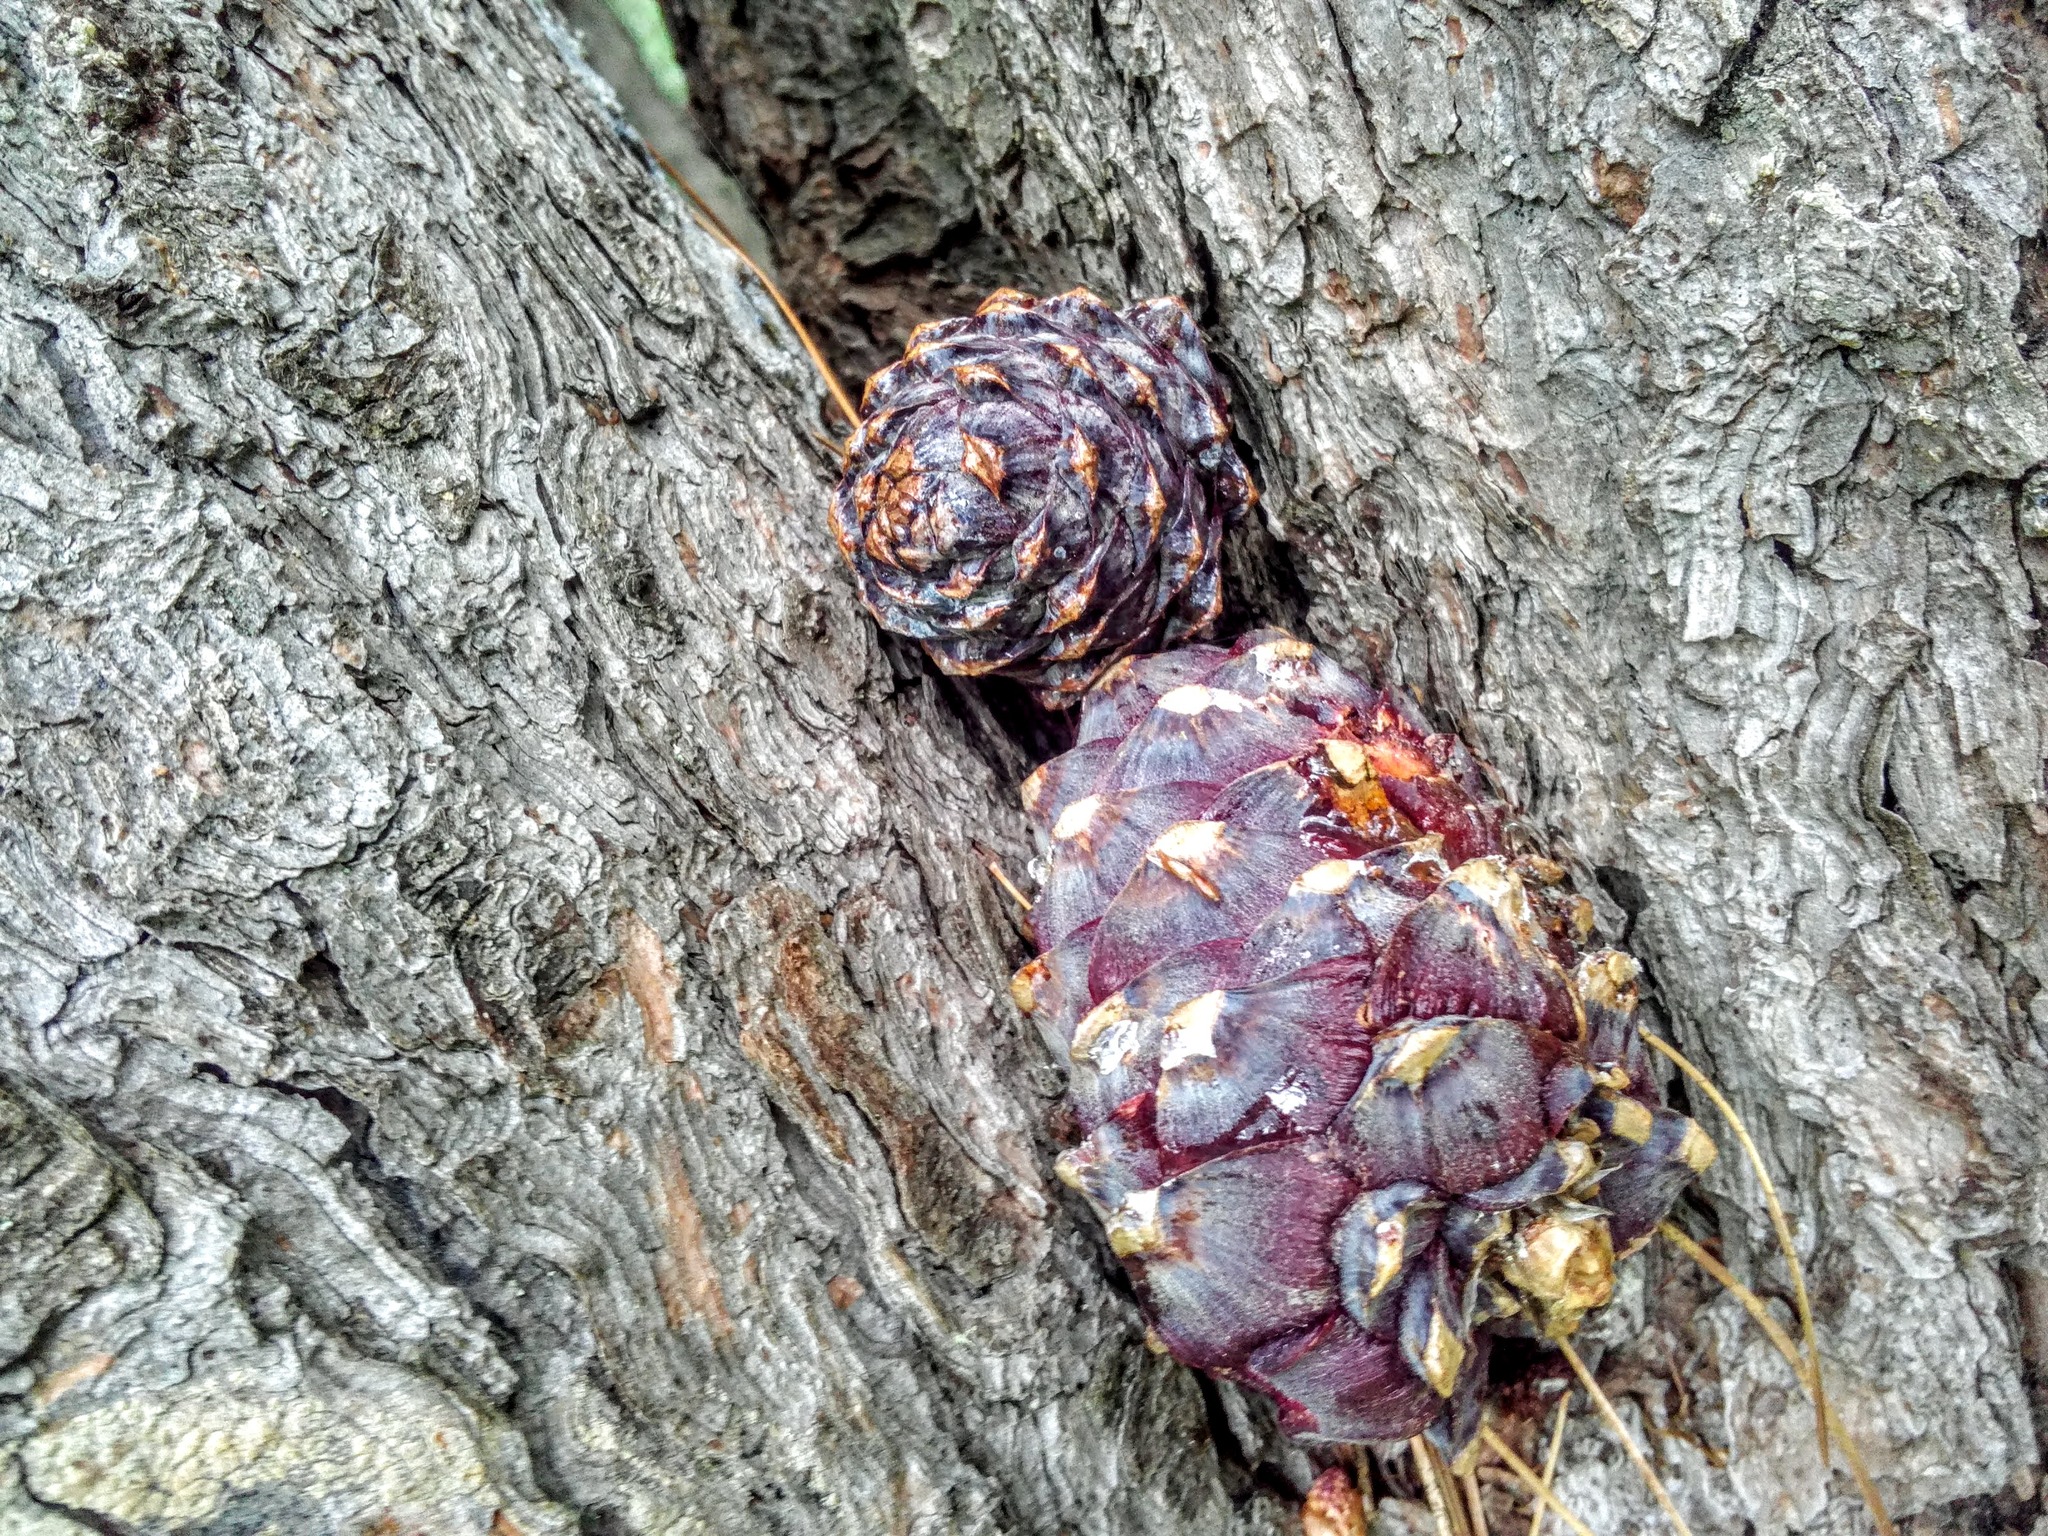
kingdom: Plantae
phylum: Tracheophyta
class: Pinopsida
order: Pinales
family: Pinaceae
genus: Pinus
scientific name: Pinus sibirica
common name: Siberian pine
